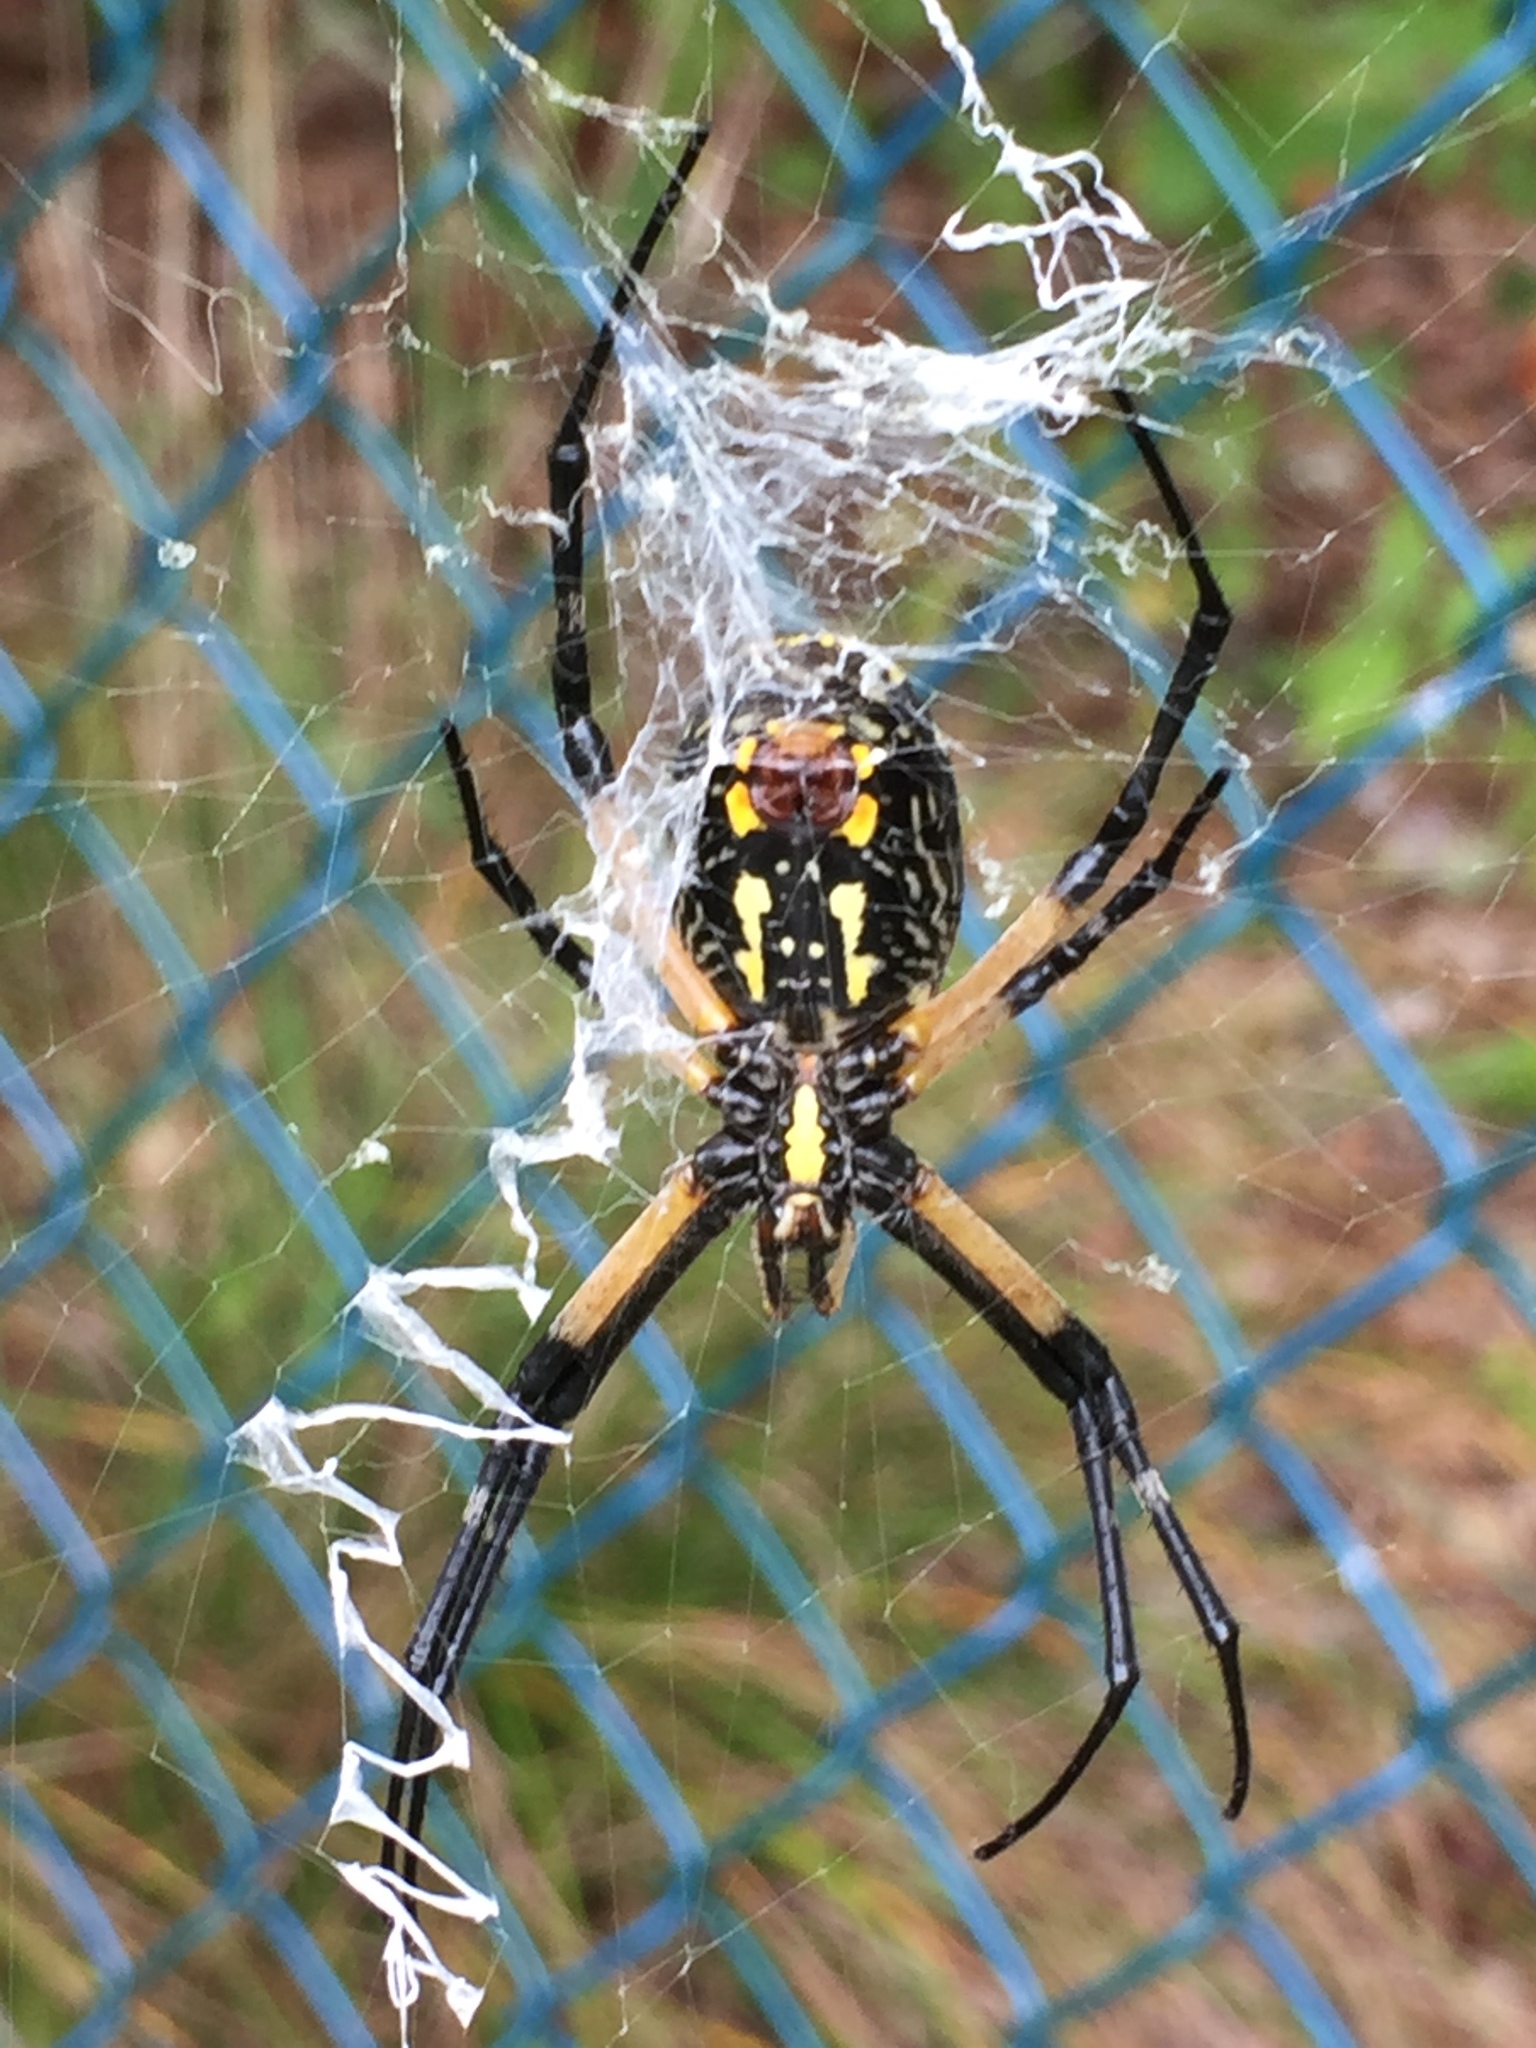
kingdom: Animalia
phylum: Arthropoda
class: Arachnida
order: Araneae
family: Araneidae
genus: Argiope
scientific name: Argiope aurantia
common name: Orb weavers
